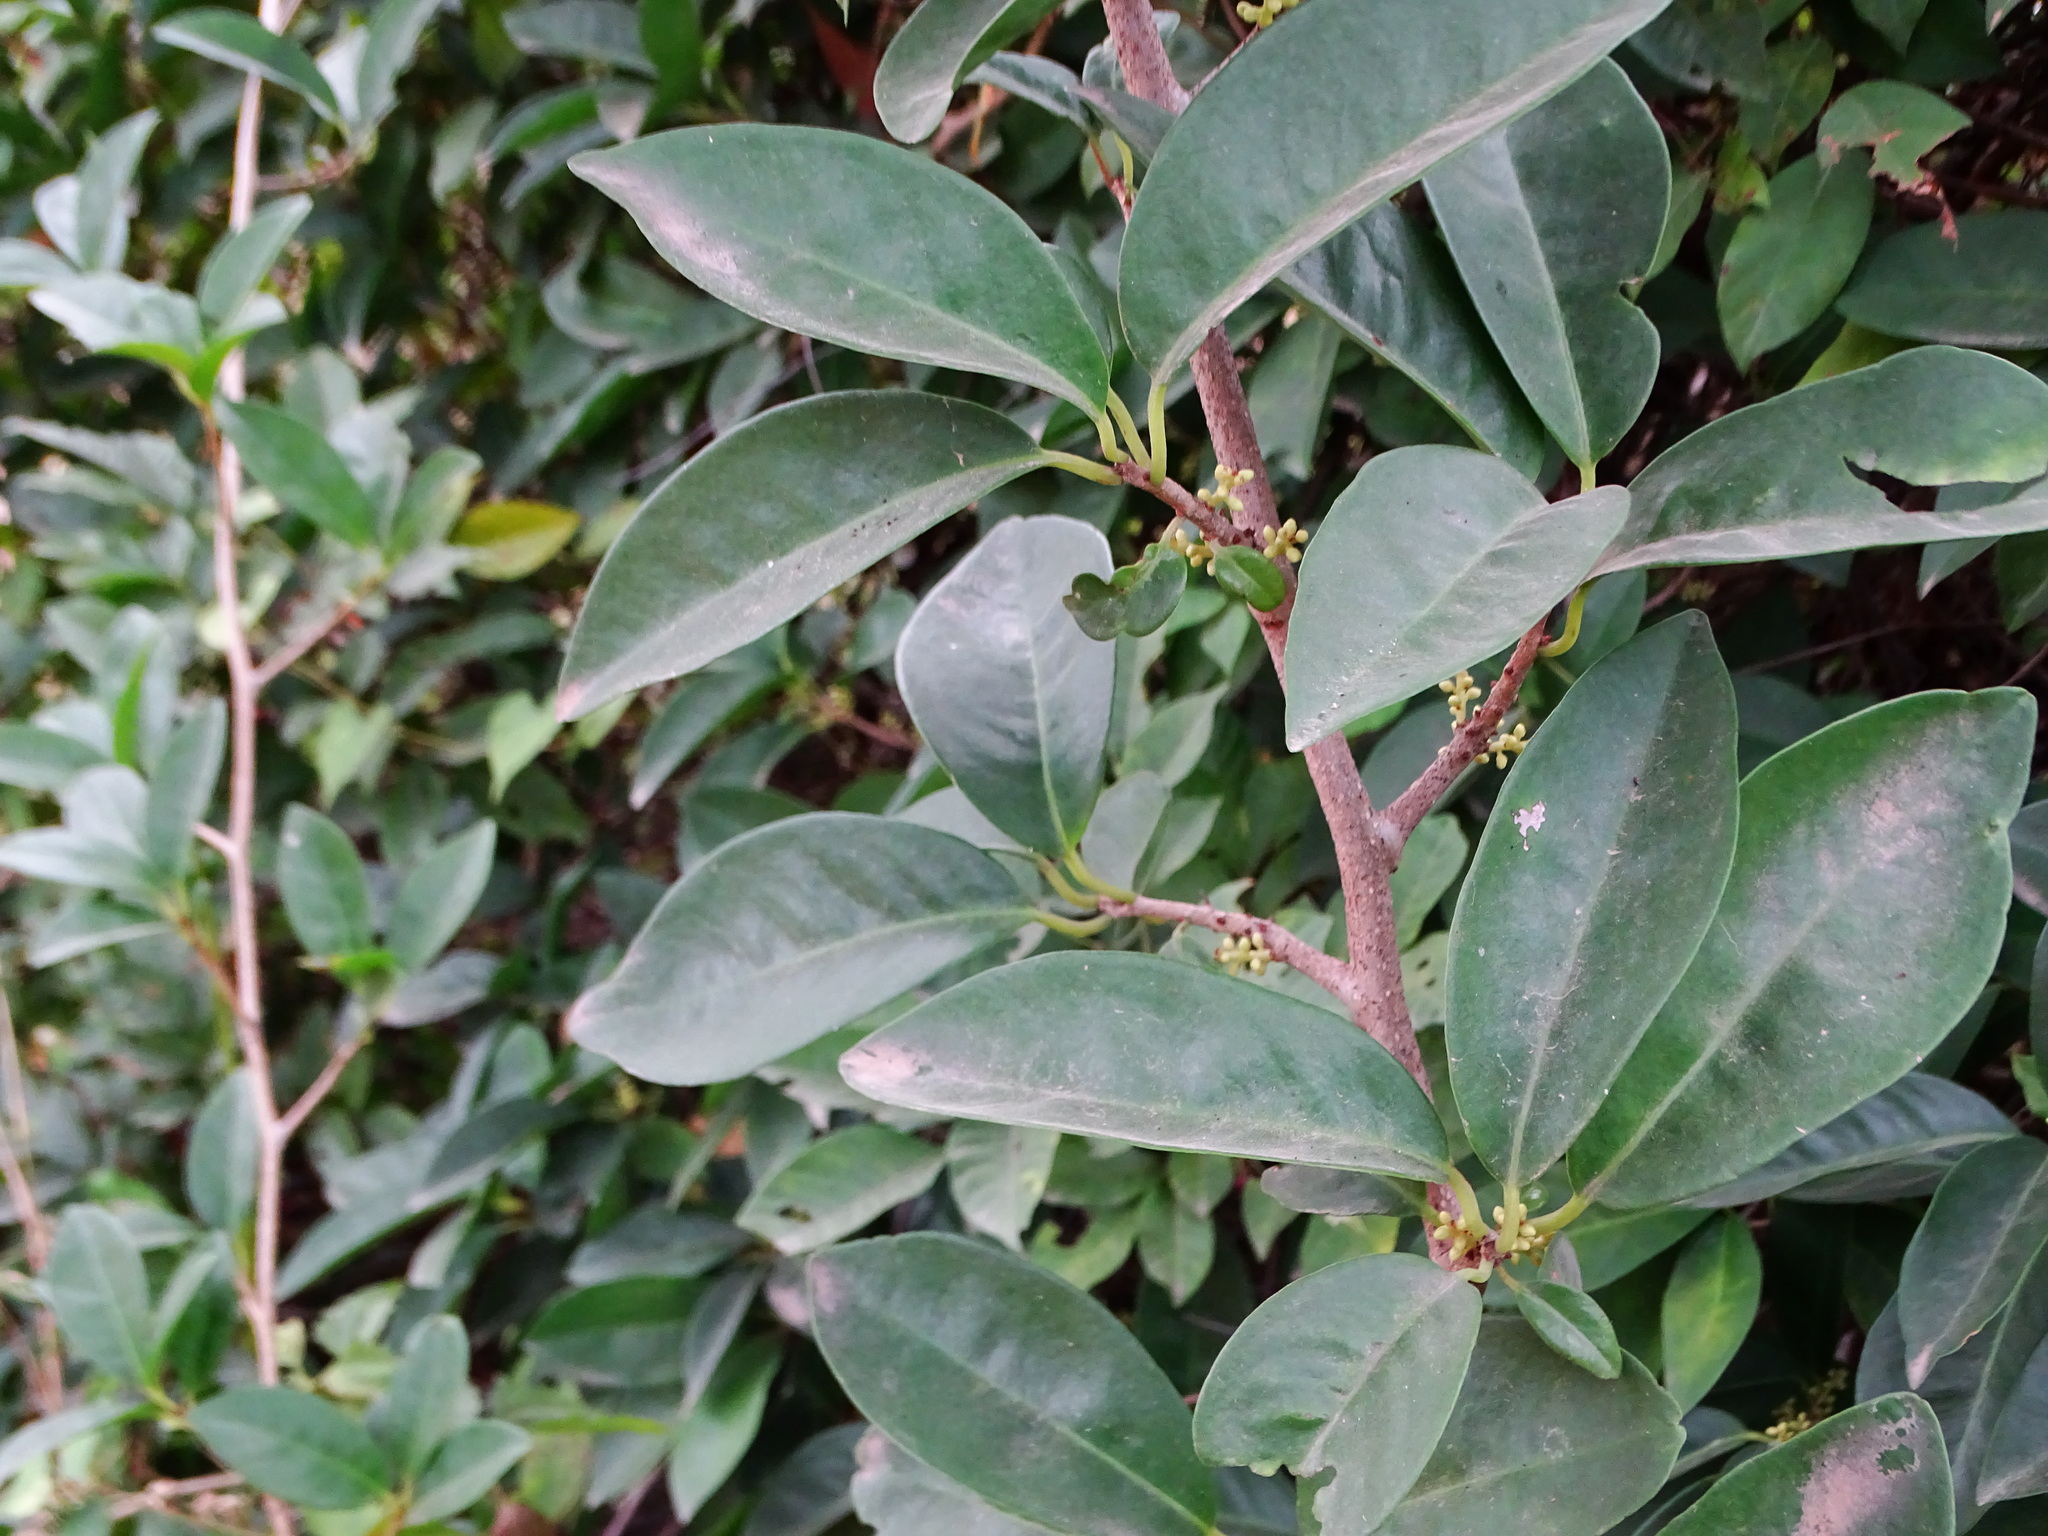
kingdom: Plantae
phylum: Tracheophyta
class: Magnoliopsida
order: Ericales
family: Primulaceae
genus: Embelia
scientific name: Embelia drupacea
